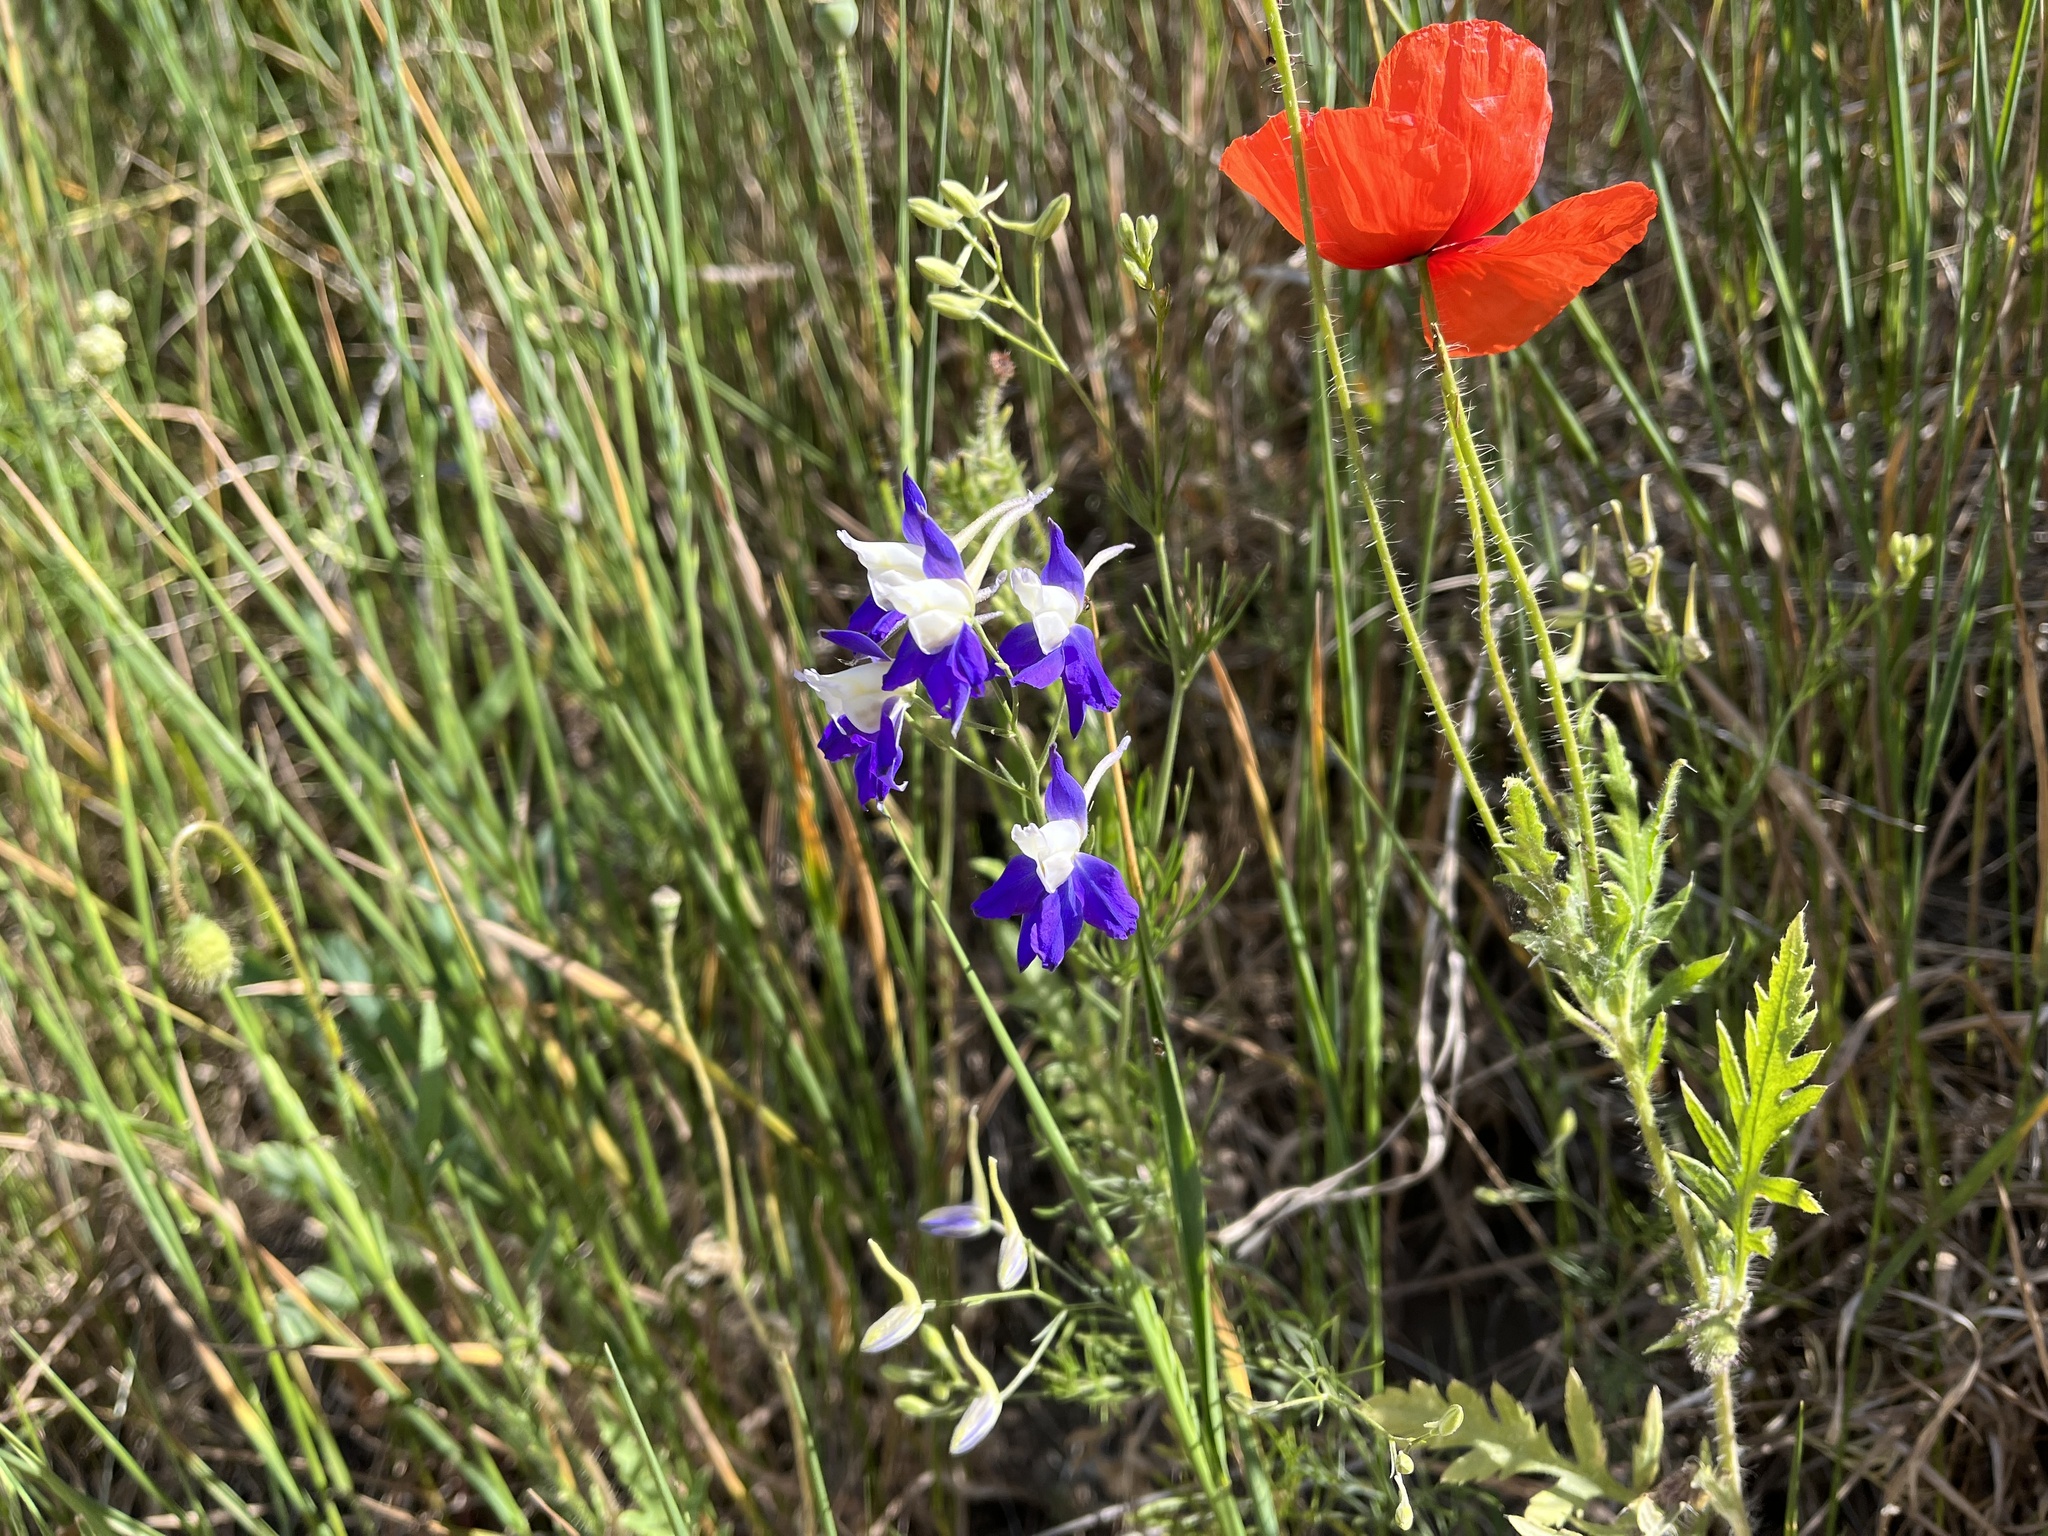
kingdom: Plantae
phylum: Tracheophyta
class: Magnoliopsida
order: Ranunculales
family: Ranunculaceae
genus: Delphinium
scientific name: Delphinium consolida
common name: Branching larkspur
